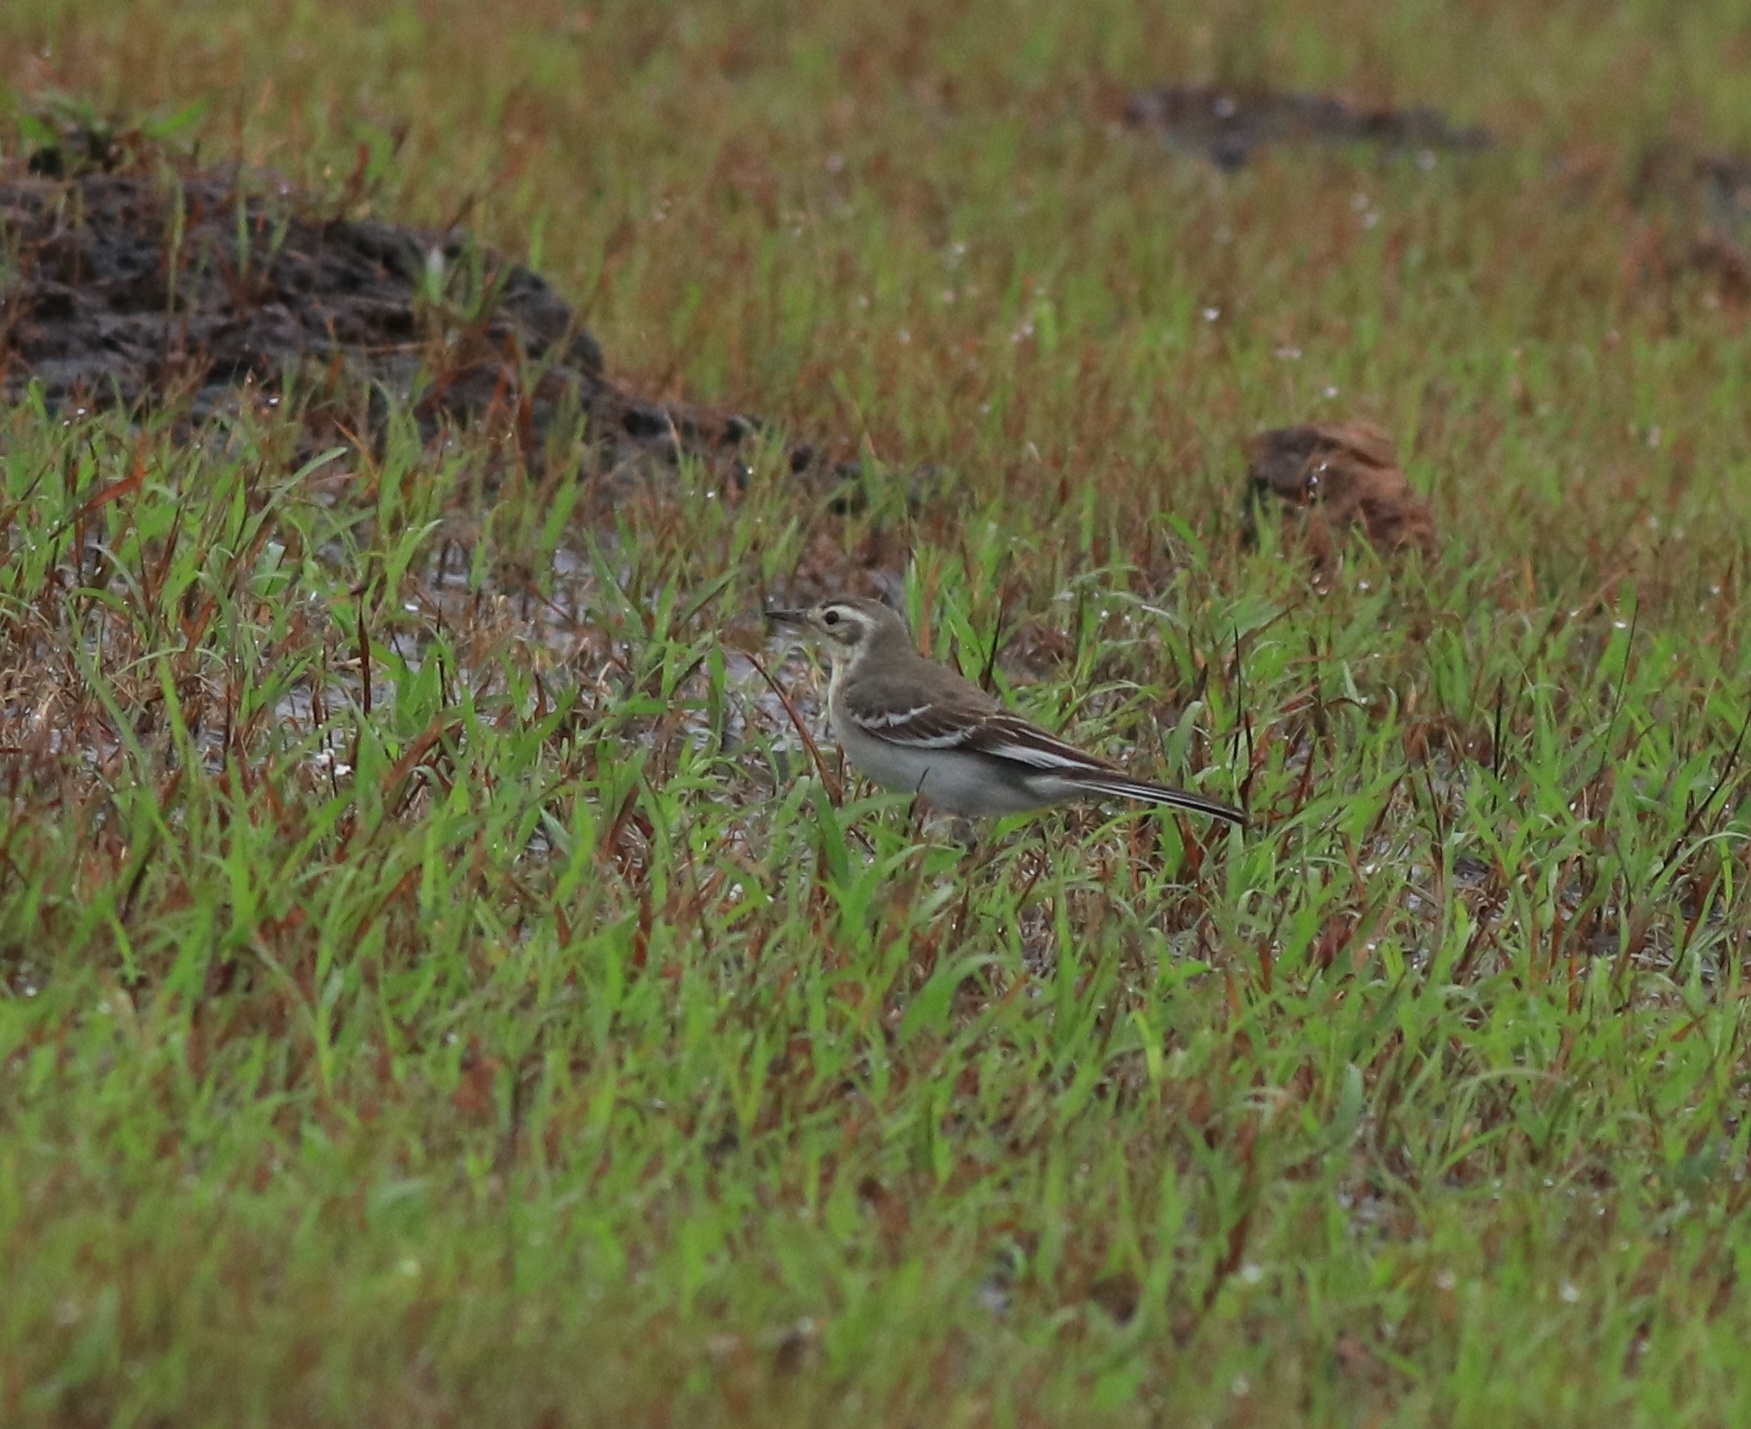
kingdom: Animalia
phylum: Chordata
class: Aves
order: Passeriformes
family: Motacillidae
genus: Motacilla
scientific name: Motacilla citreola
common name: Citrine wagtail
